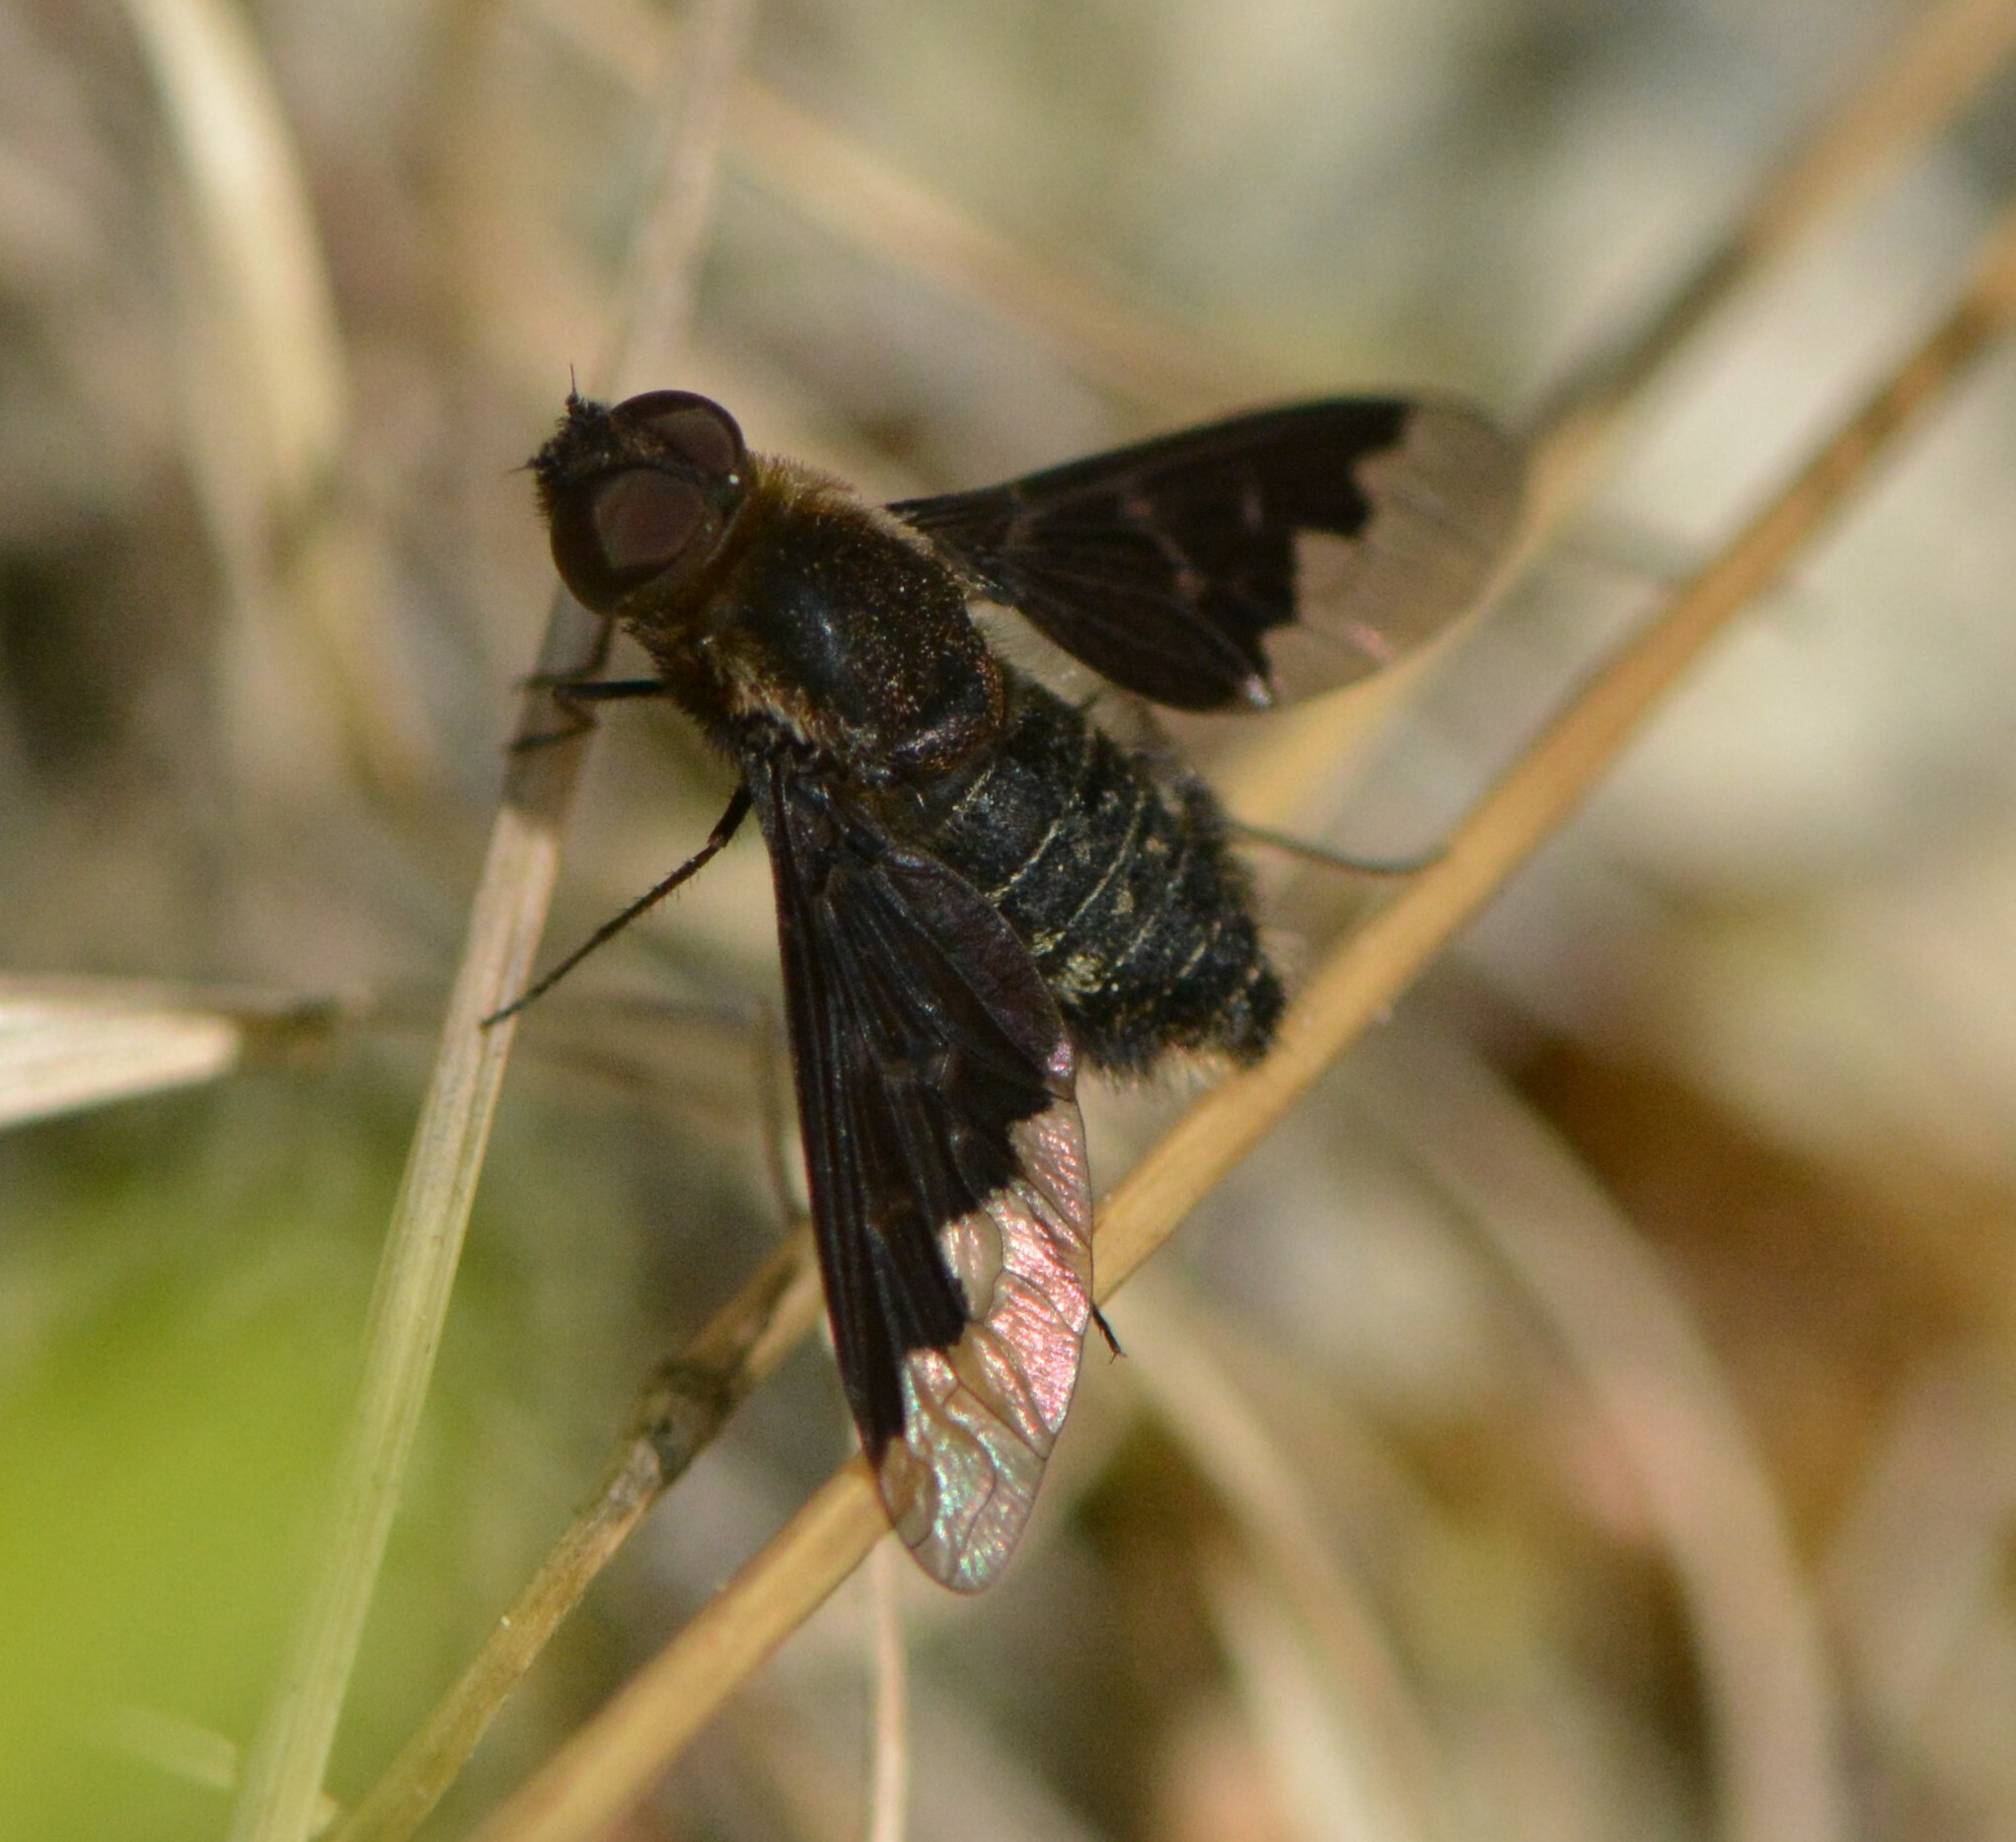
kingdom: Animalia
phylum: Arthropoda
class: Insecta
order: Diptera
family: Bombyliidae
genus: Hemipenthes
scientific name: Hemipenthes morioides
